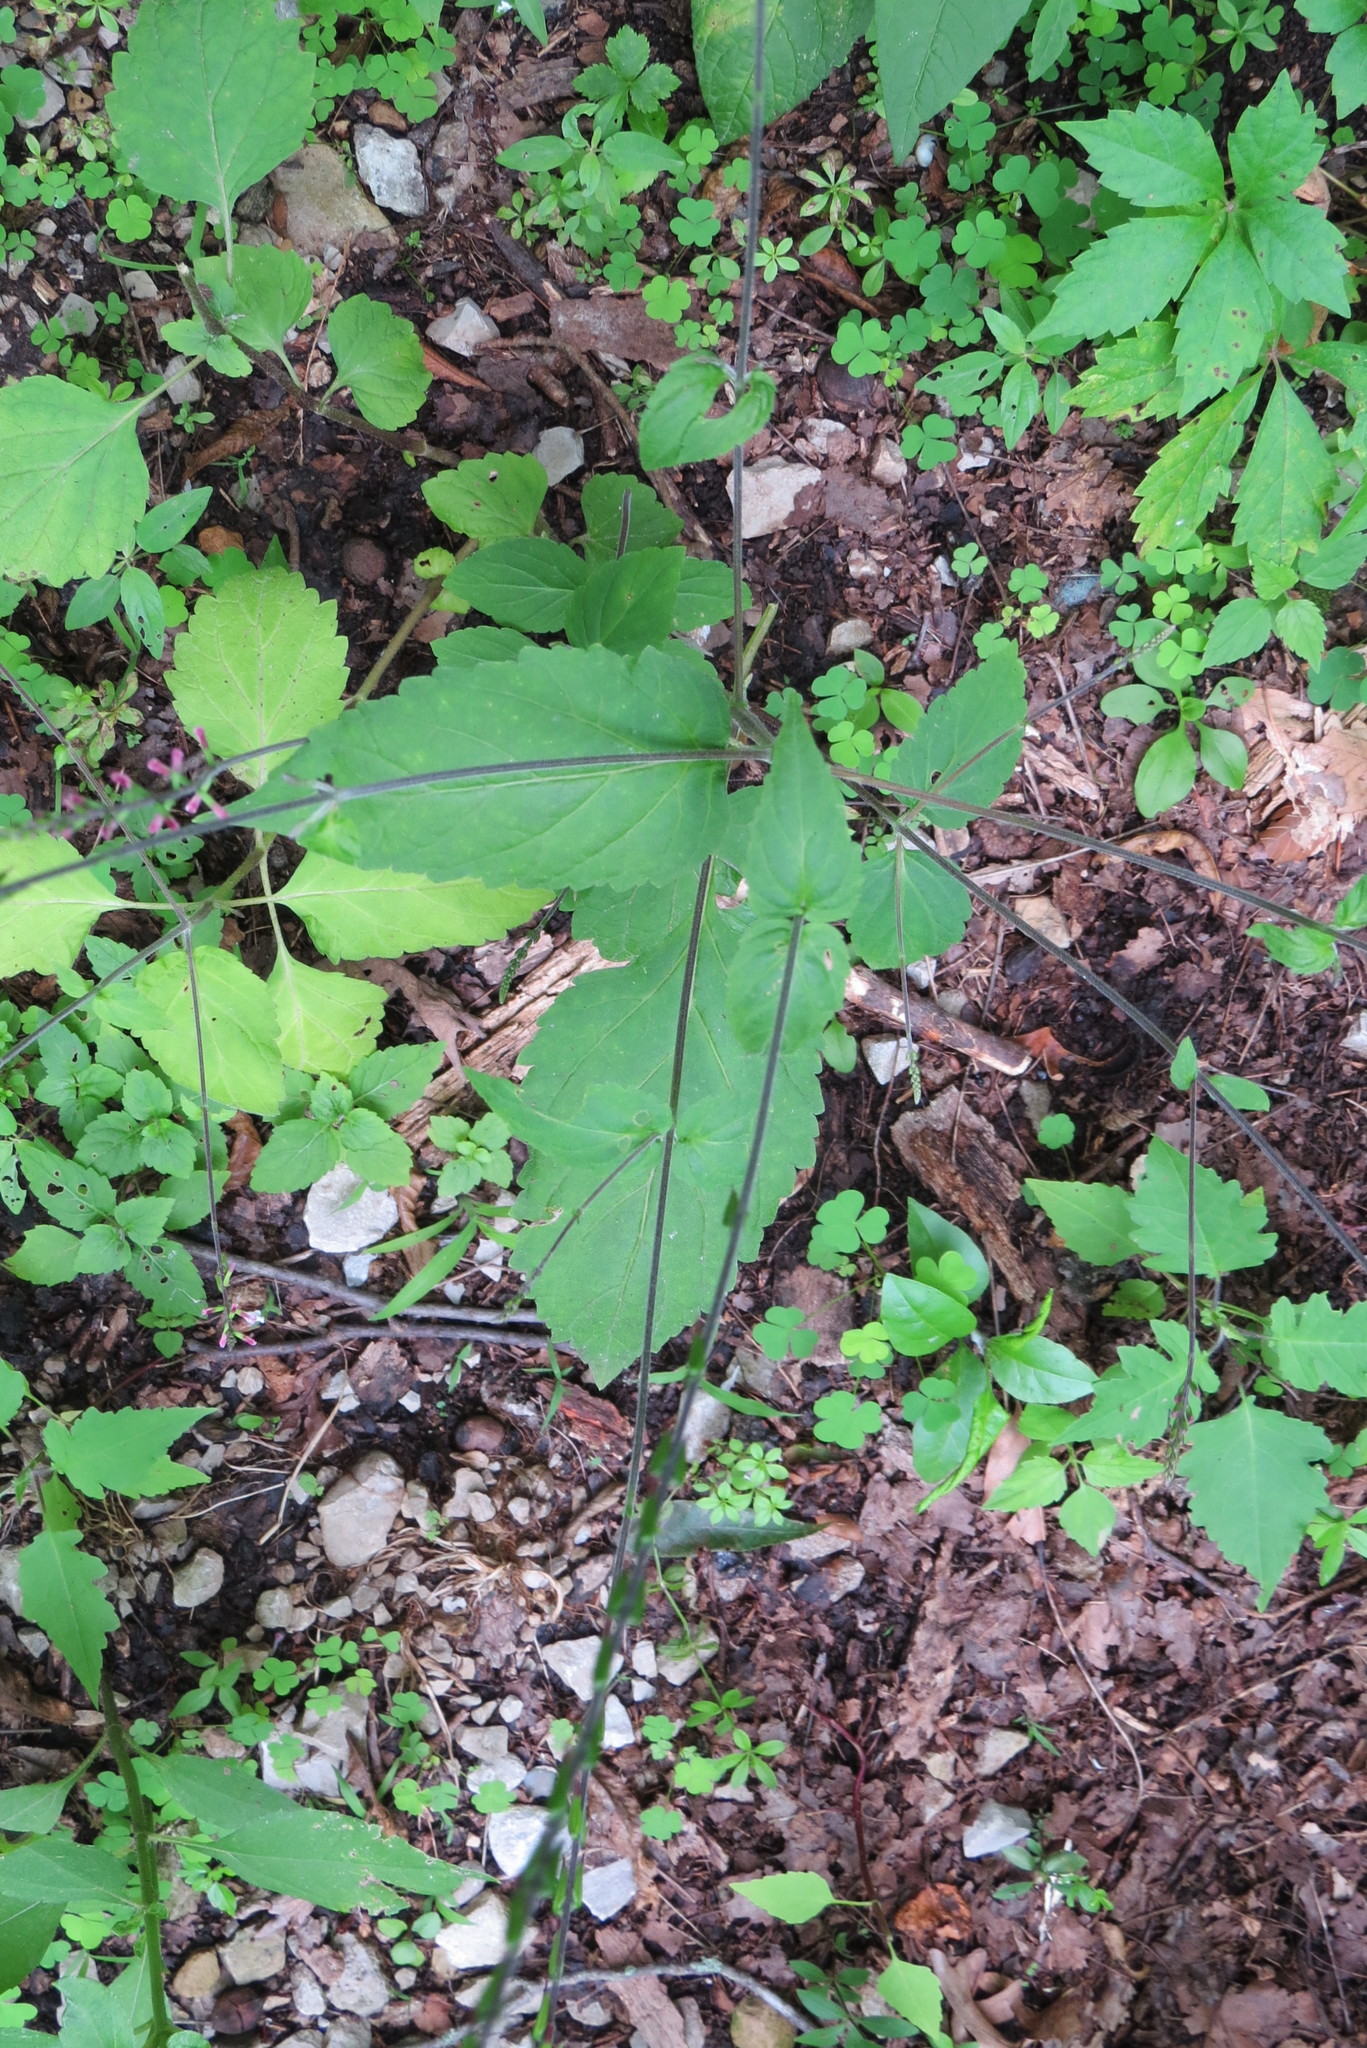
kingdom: Plantae
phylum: Tracheophyta
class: Magnoliopsida
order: Lamiales
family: Phrymaceae
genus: Phryma
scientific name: Phryma leptostachya
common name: American lopseed
